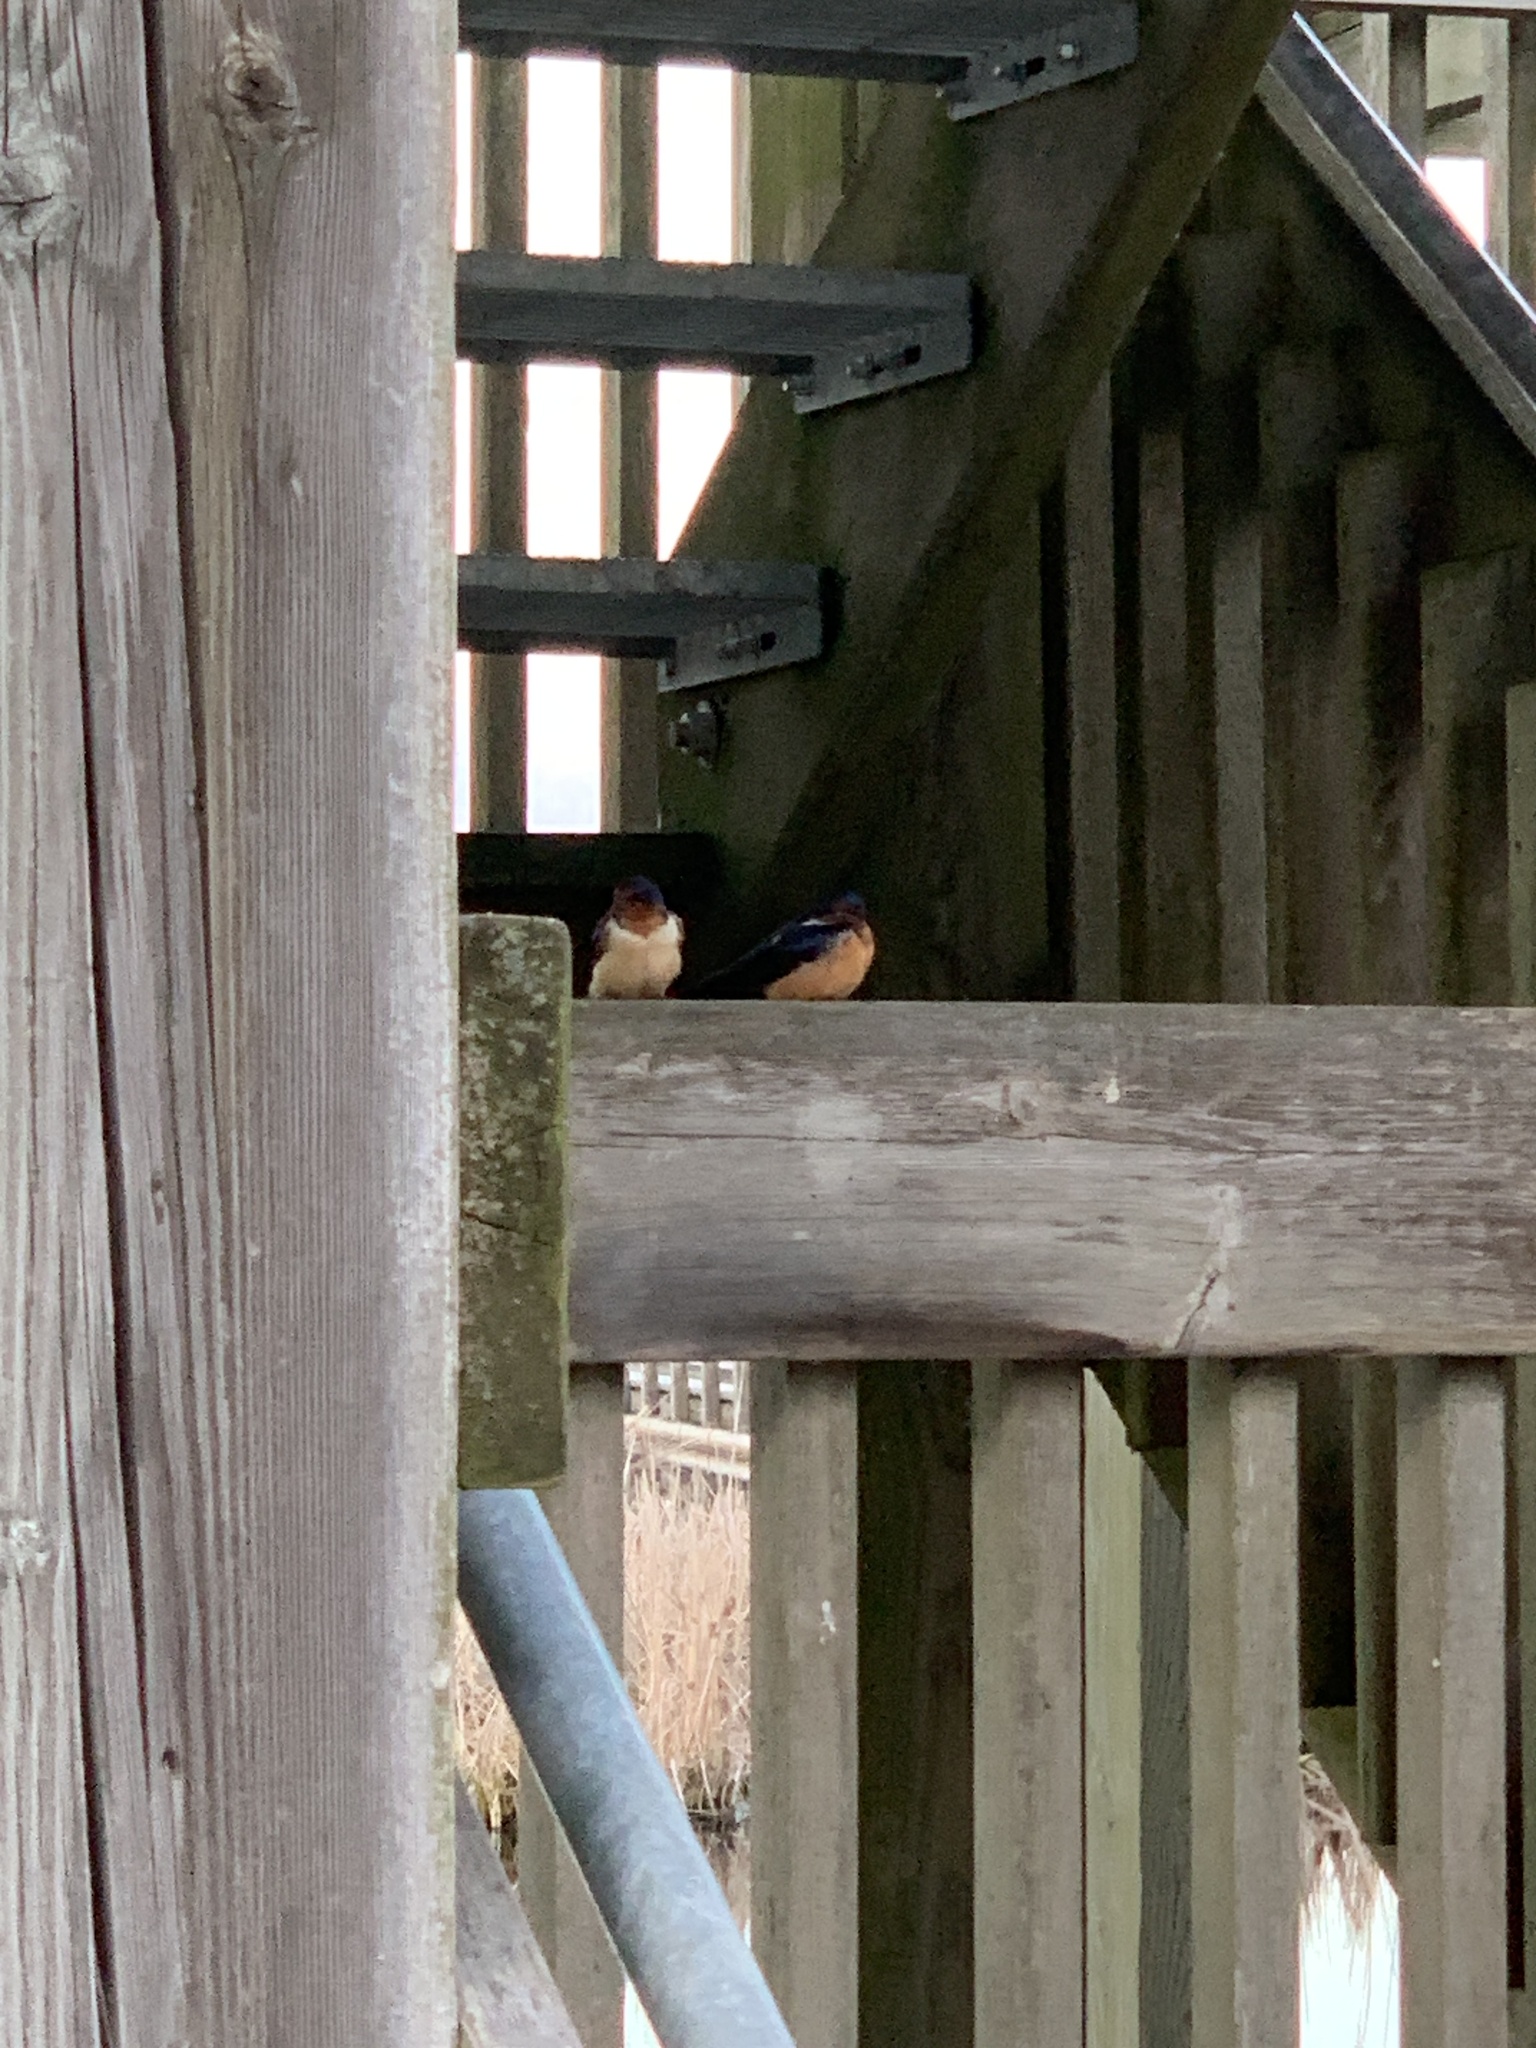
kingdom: Animalia
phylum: Chordata
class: Aves
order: Passeriformes
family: Hirundinidae
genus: Hirundo
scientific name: Hirundo rustica
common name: Barn swallow
